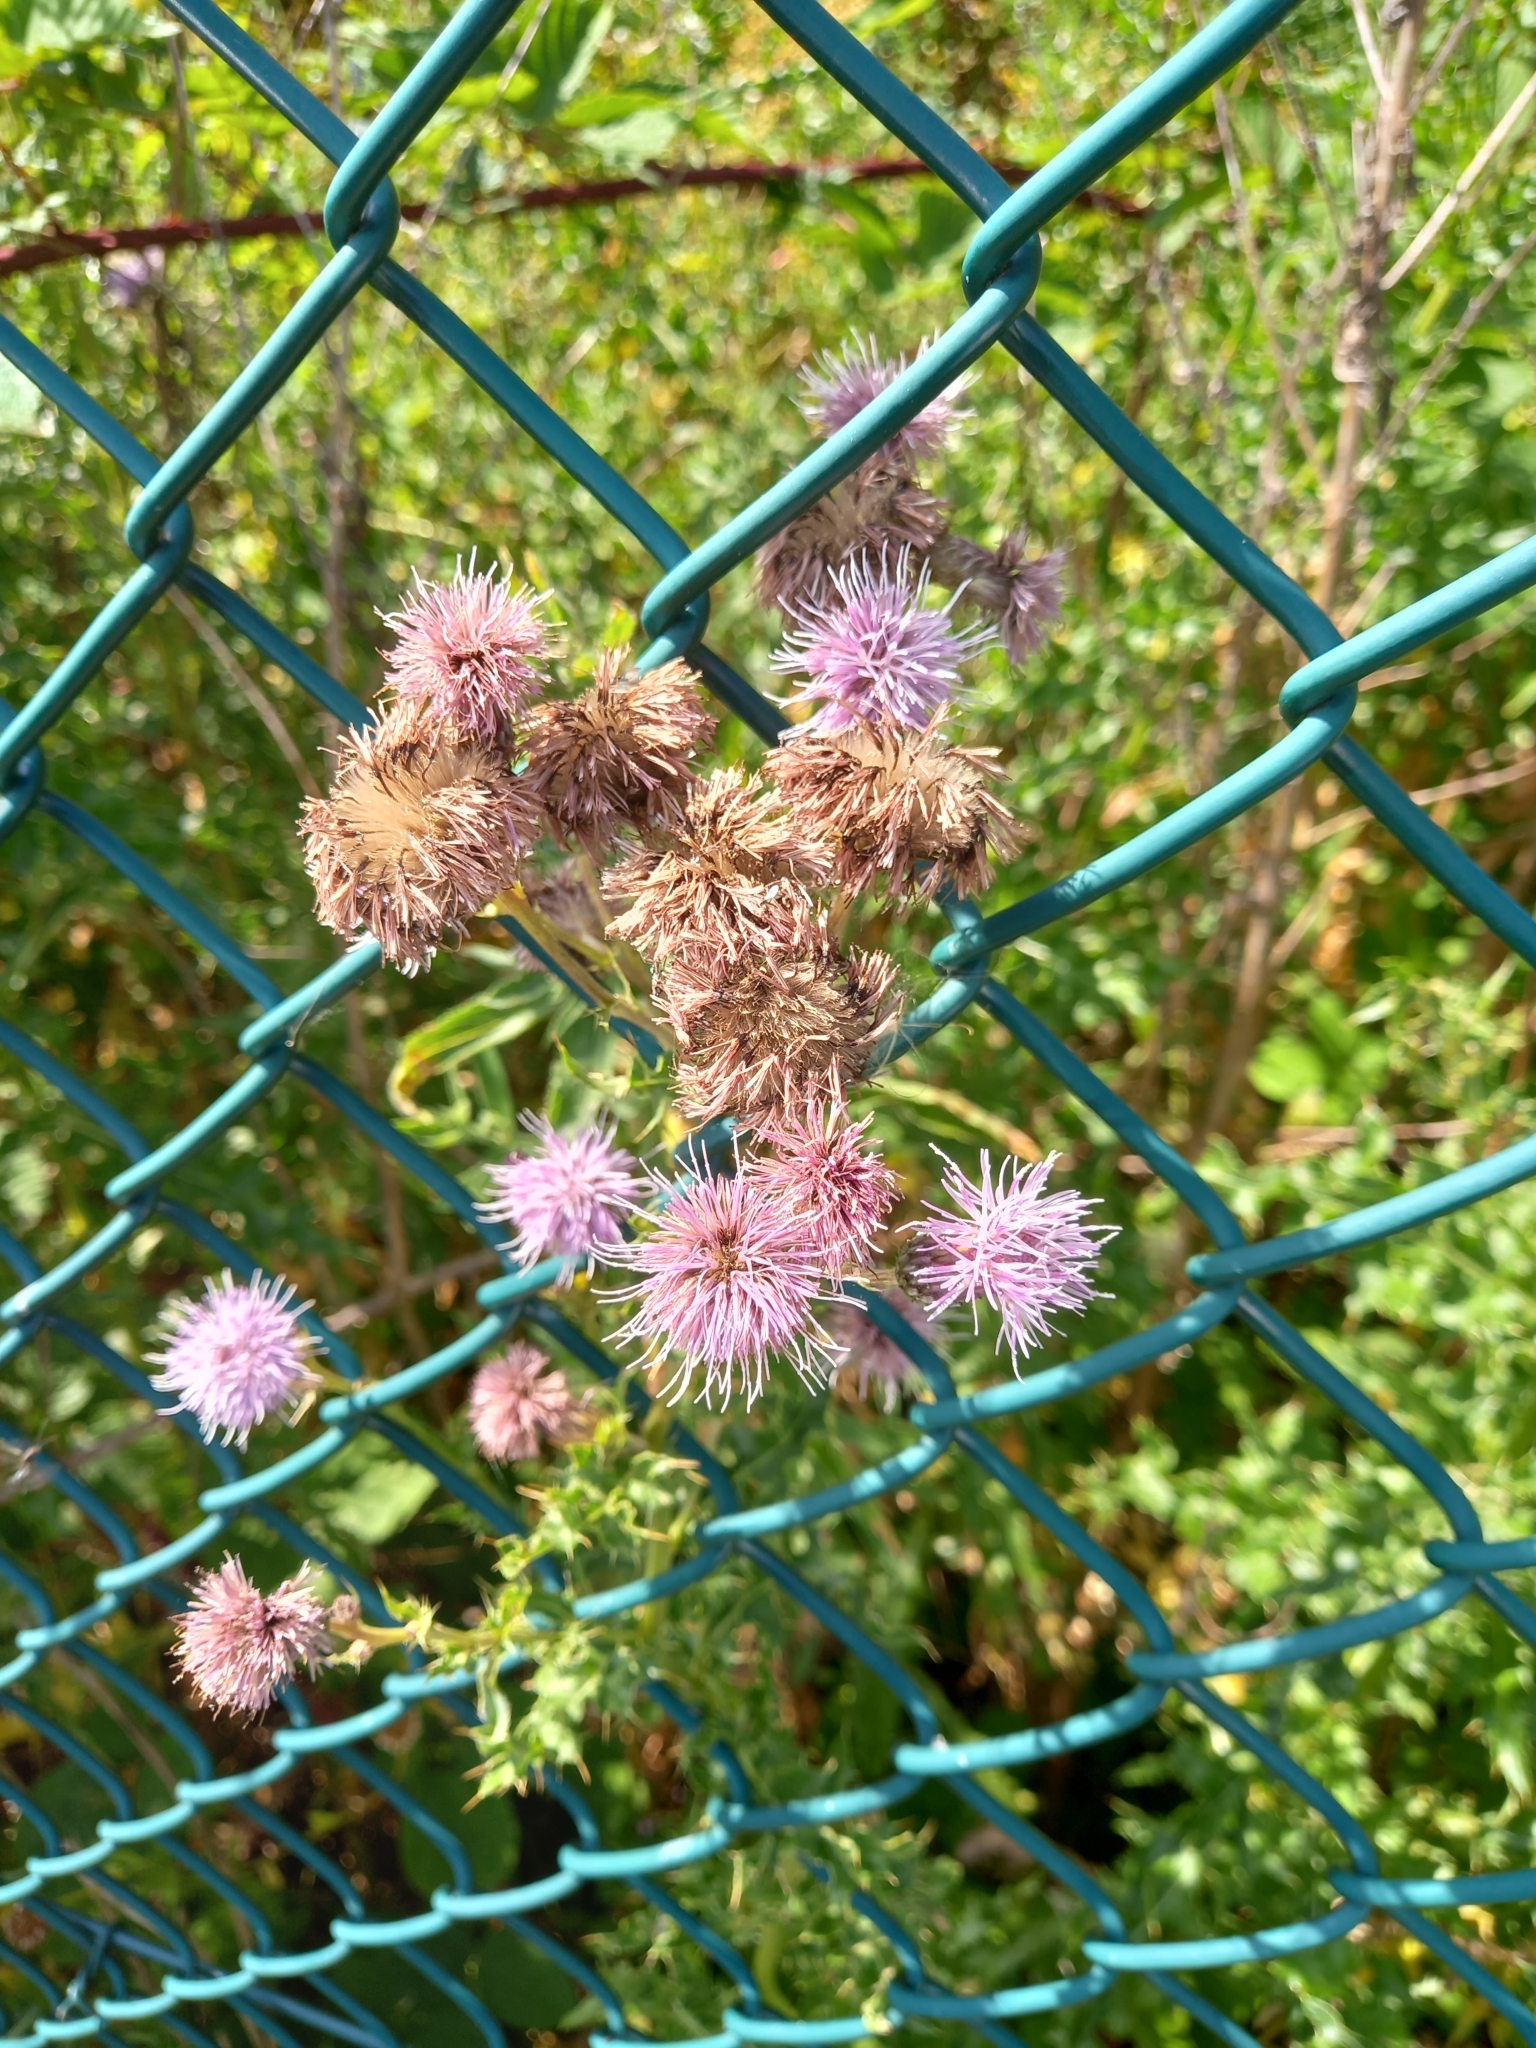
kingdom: Plantae
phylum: Tracheophyta
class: Magnoliopsida
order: Asterales
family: Asteraceae
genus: Cirsium
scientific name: Cirsium arvense
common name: Creeping thistle
